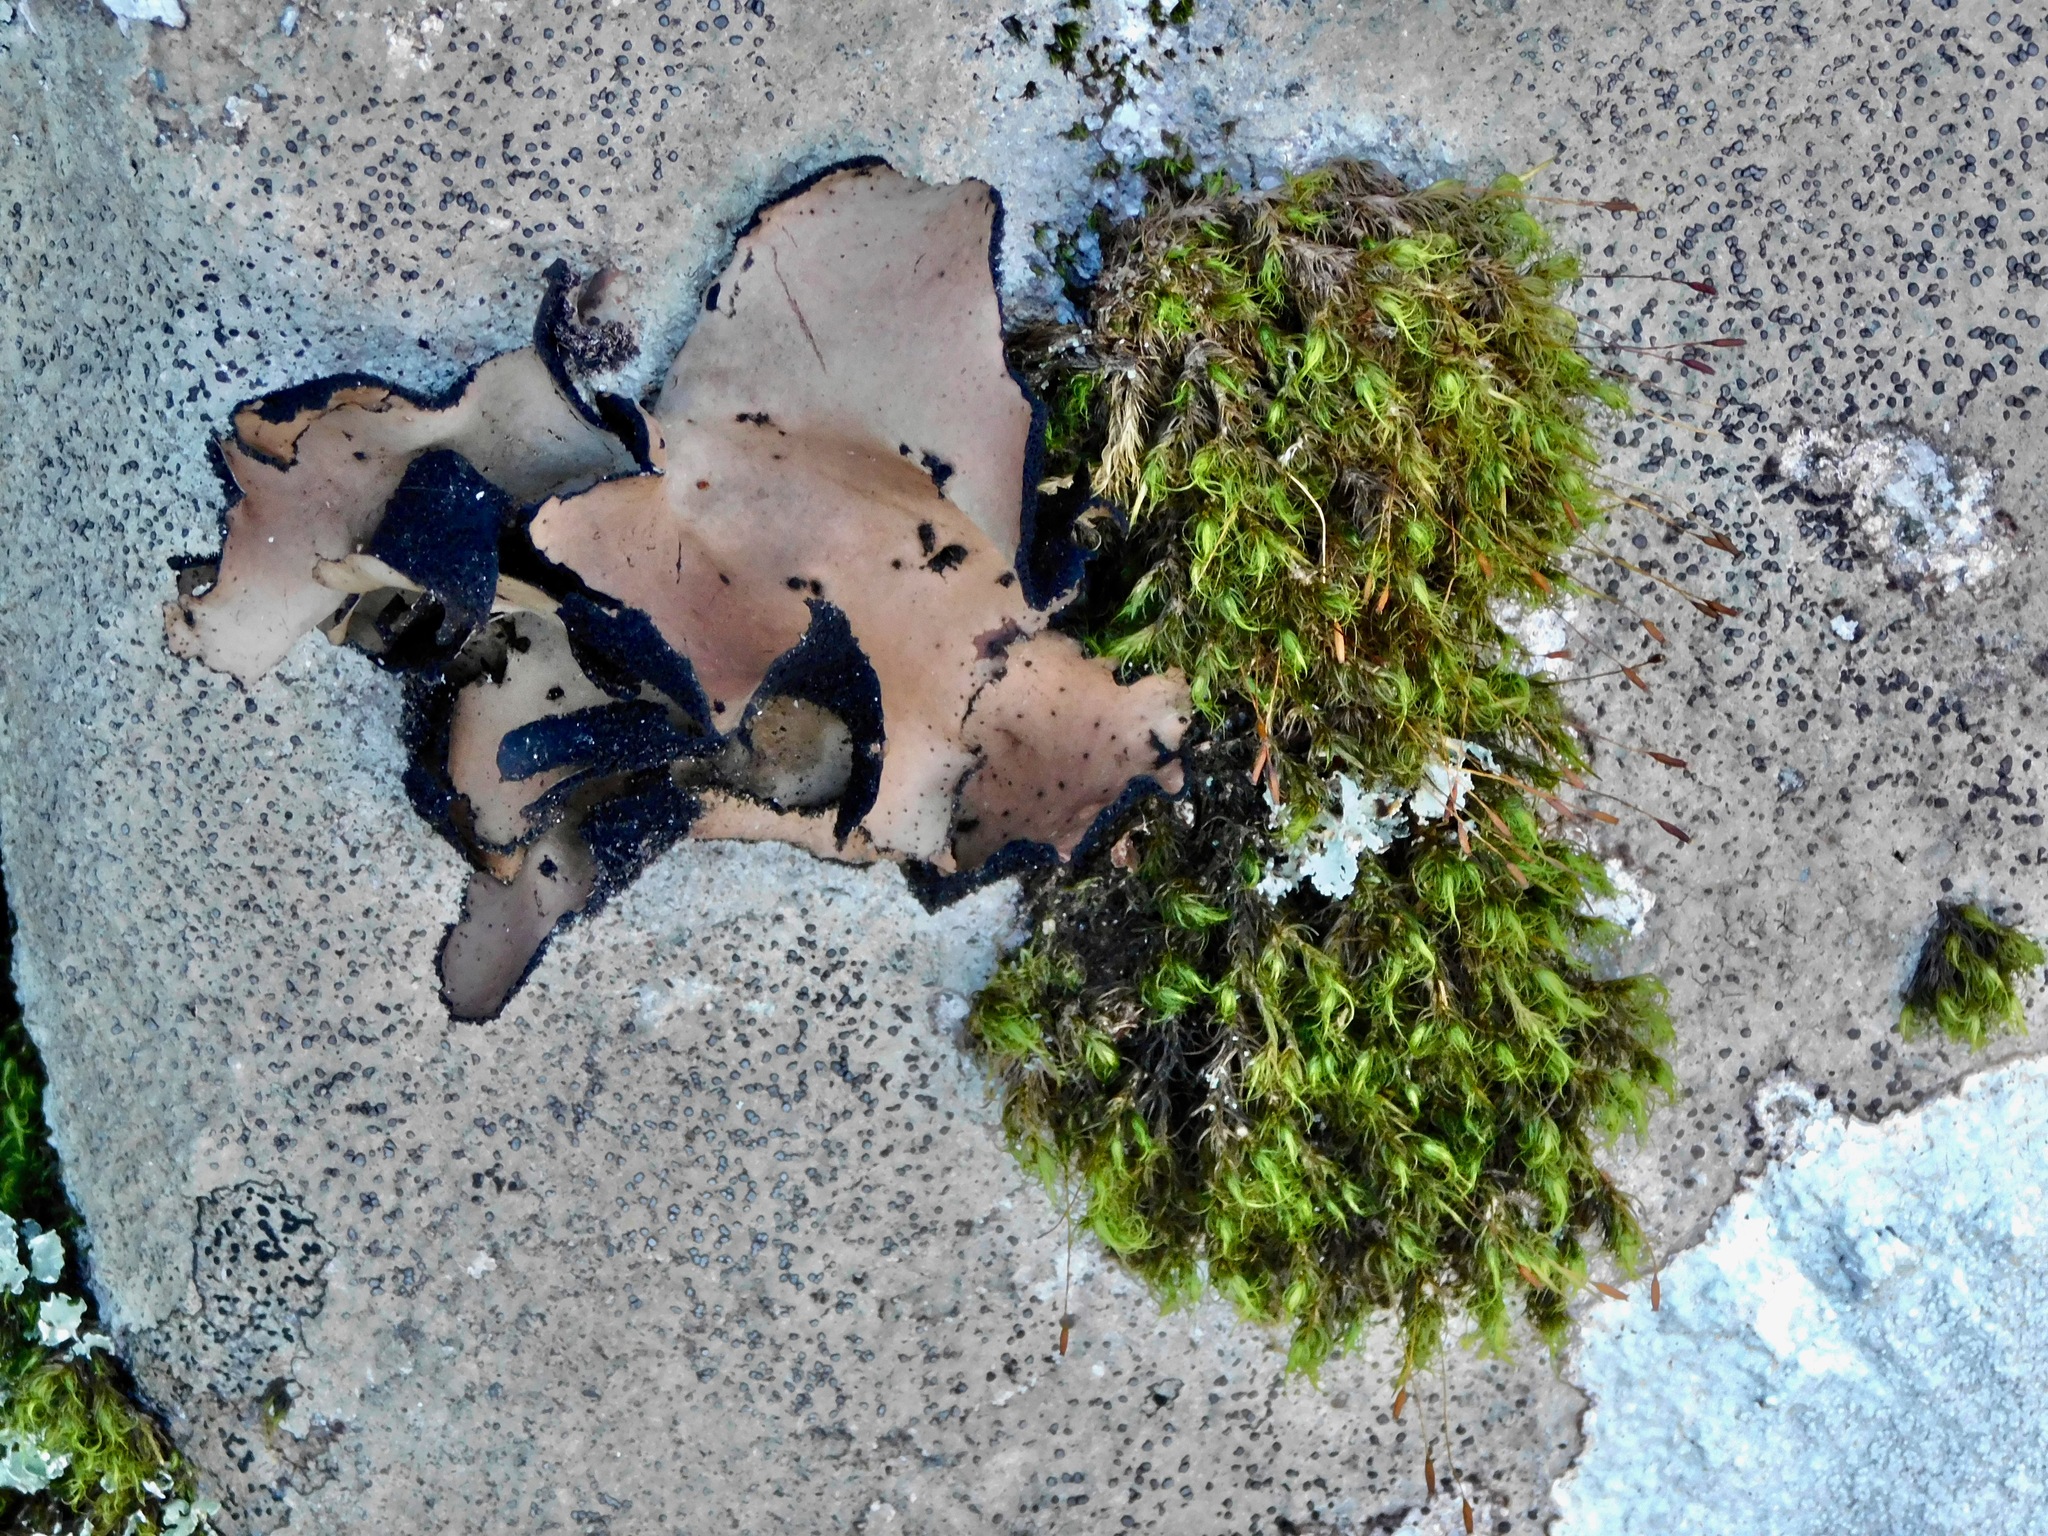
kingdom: Fungi
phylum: Ascomycota
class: Lecanoromycetes
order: Umbilicariales
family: Umbilicariaceae
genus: Umbilicaria
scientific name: Umbilicaria mammulata
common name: Smooth rock tripe
